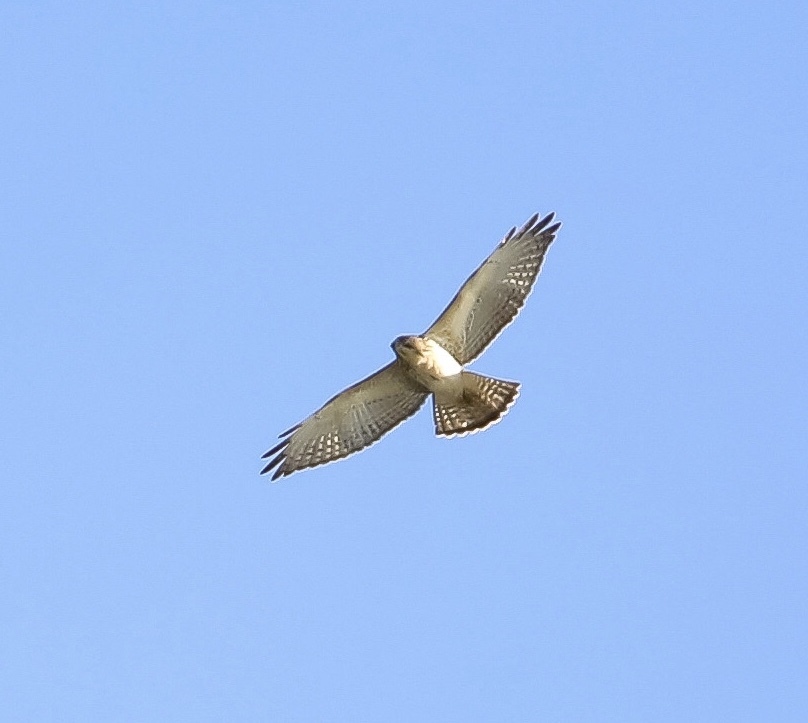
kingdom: Animalia
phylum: Chordata
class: Aves
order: Accipitriformes
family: Accipitridae
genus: Buteo
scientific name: Buteo platypterus
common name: Broad-winged hawk
